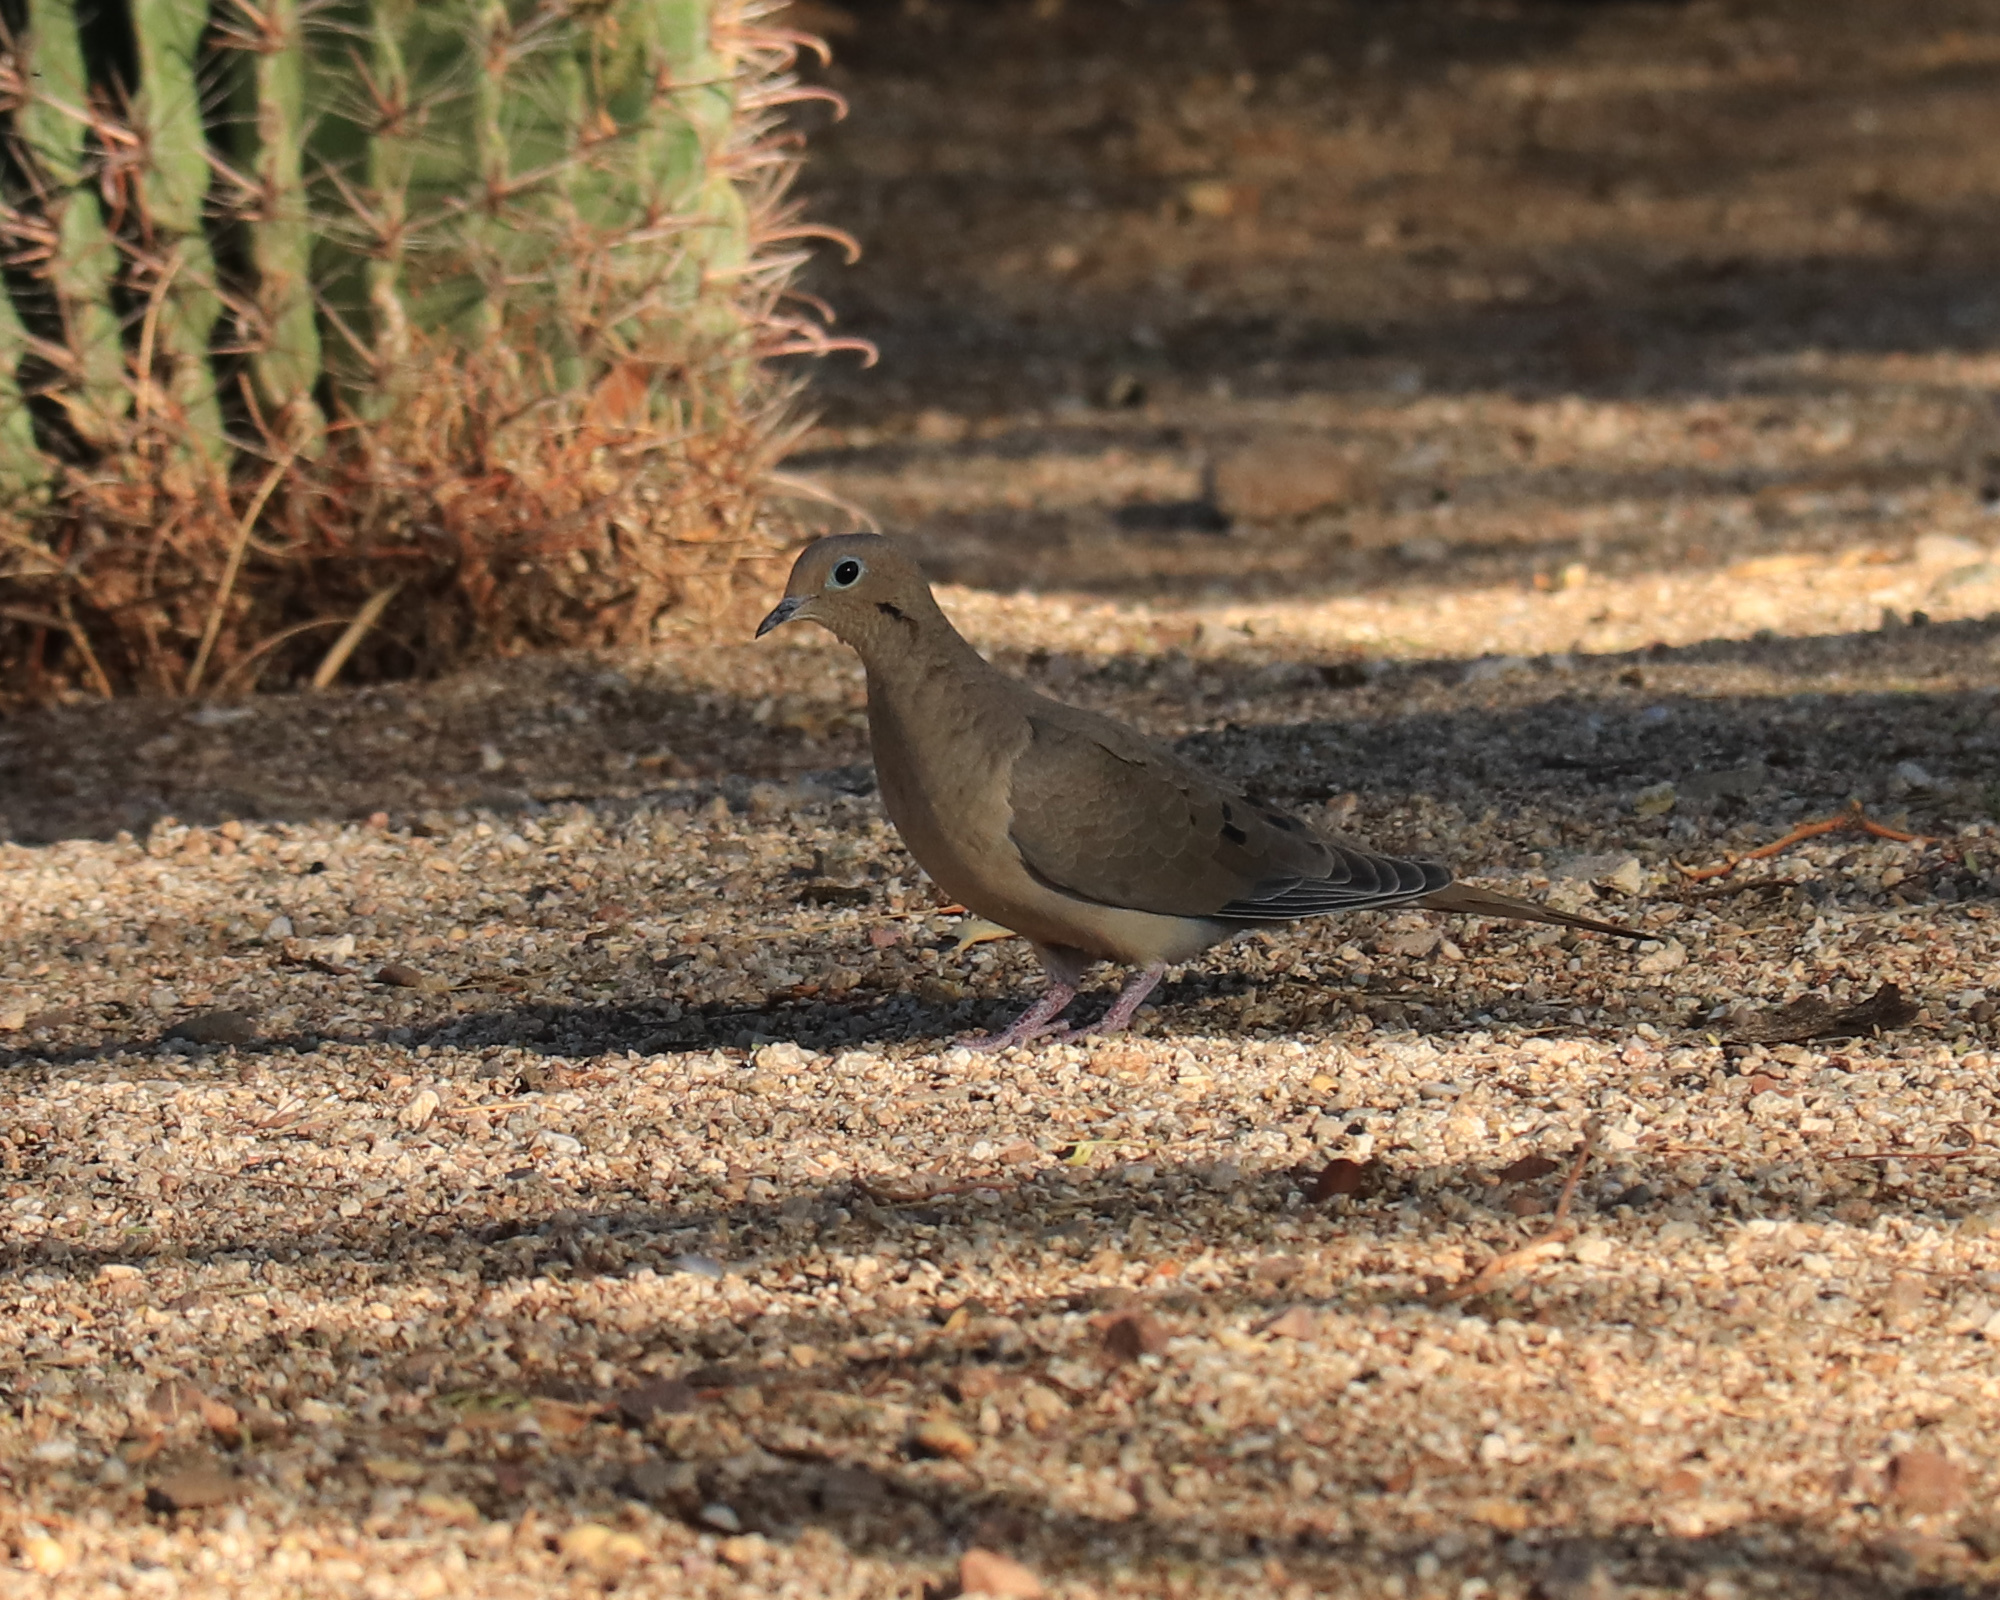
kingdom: Animalia
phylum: Chordata
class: Aves
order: Columbiformes
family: Columbidae
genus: Zenaida
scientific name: Zenaida macroura
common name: Mourning dove
